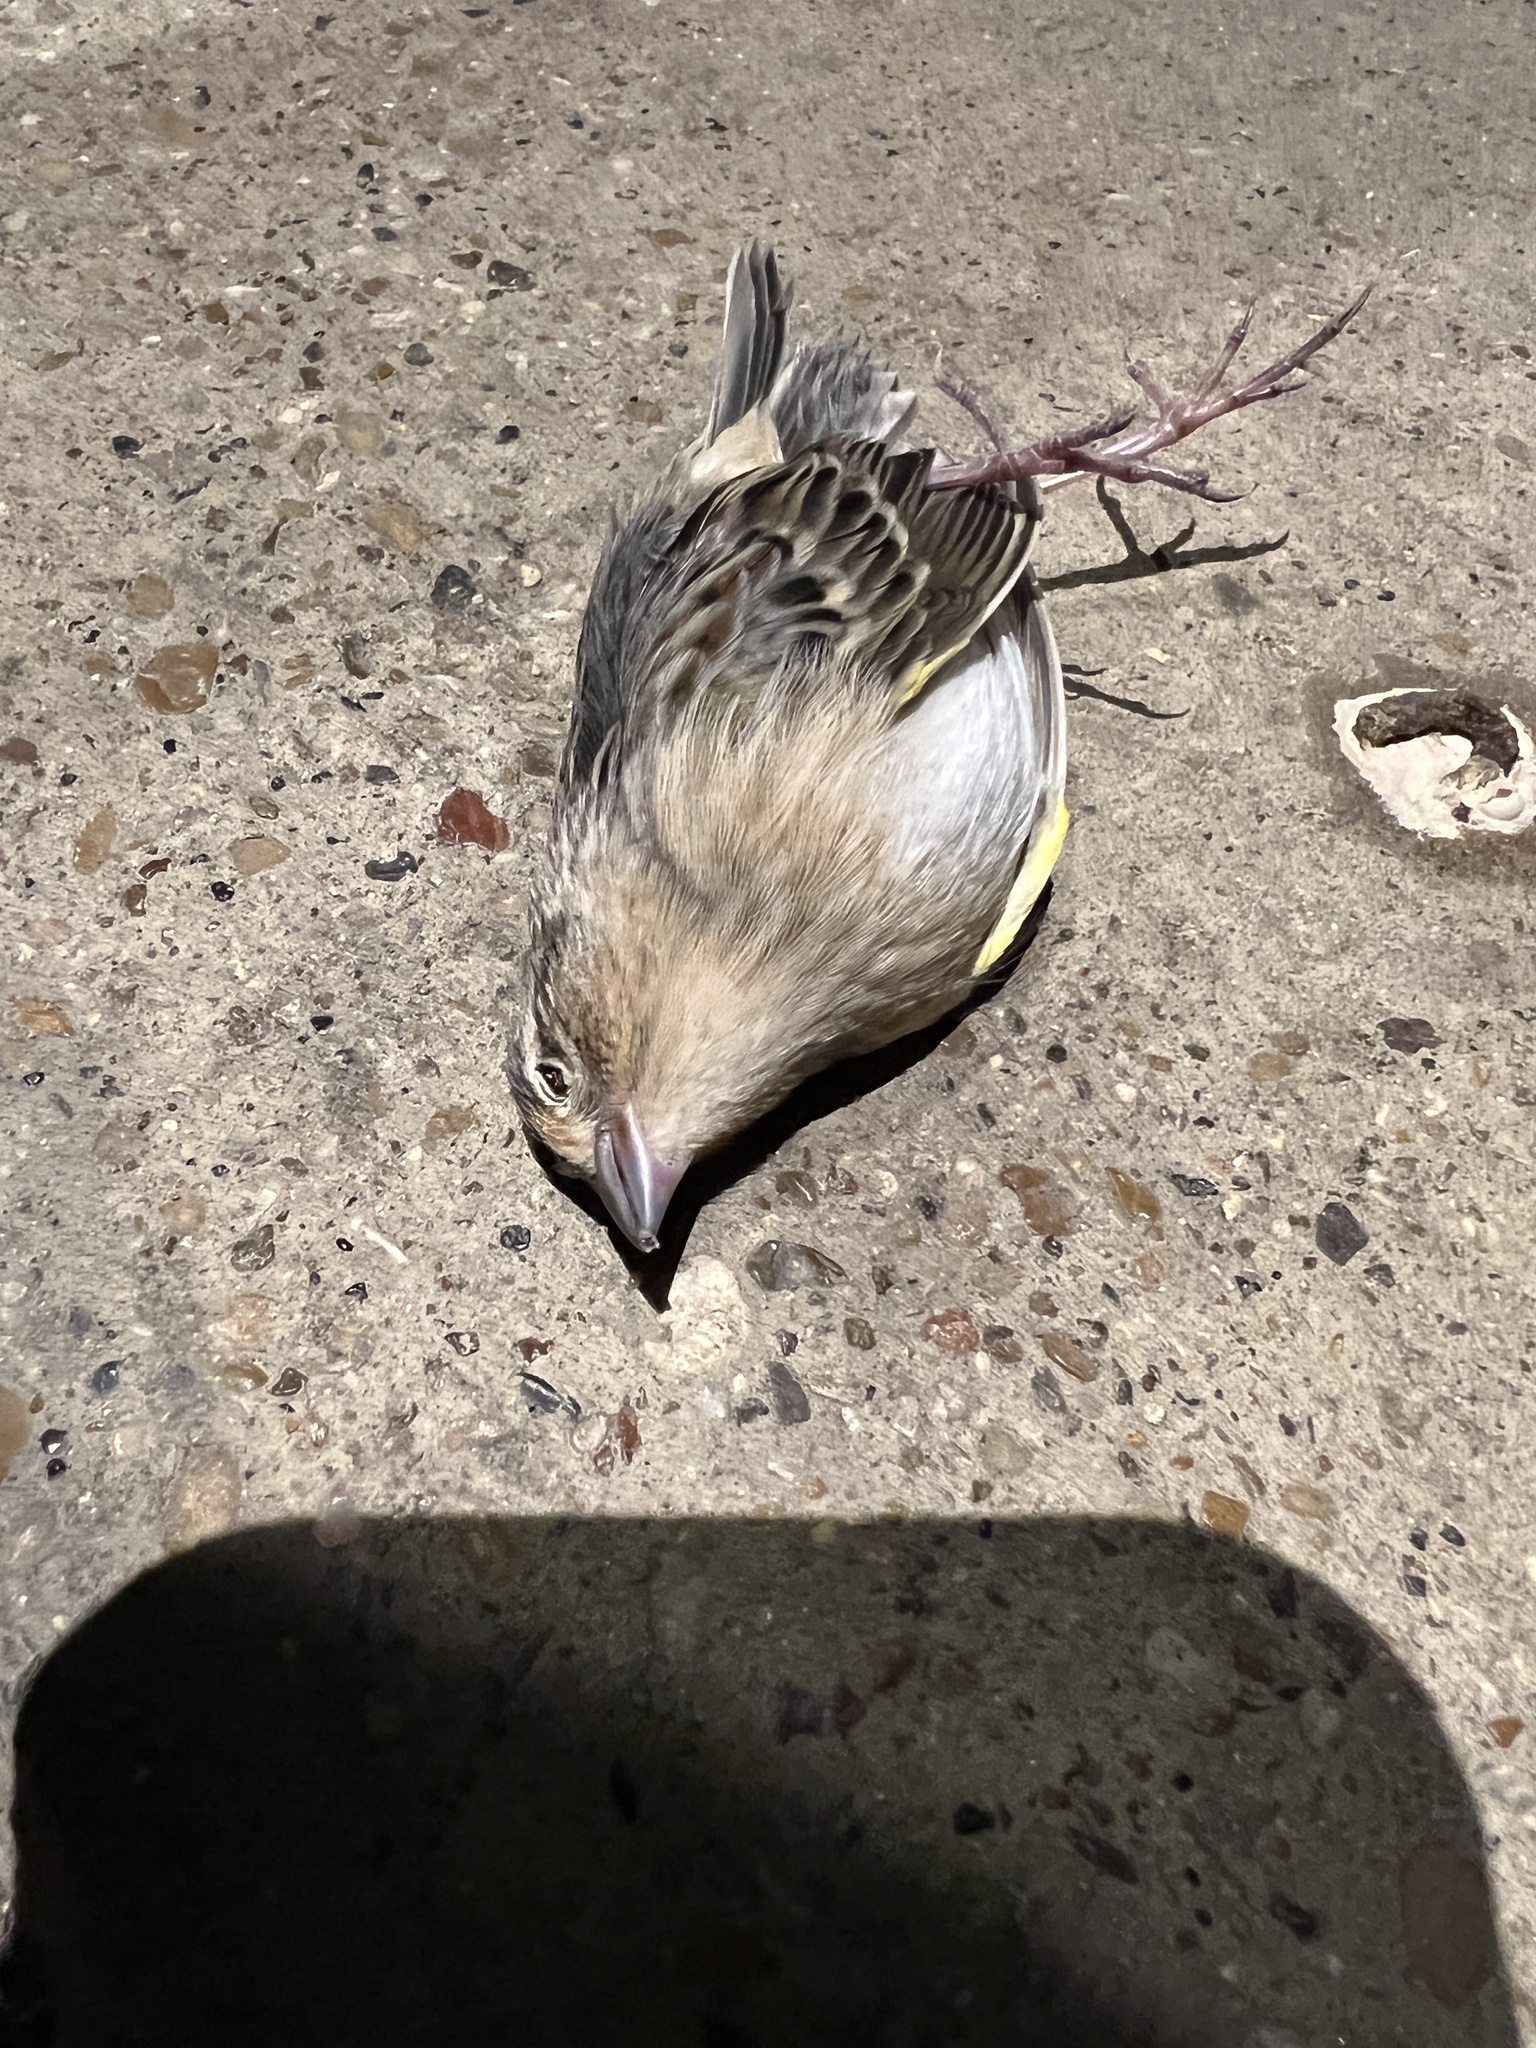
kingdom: Animalia
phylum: Chordata
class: Aves
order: Passeriformes
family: Passerellidae
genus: Ammodramus
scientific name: Ammodramus savannarum
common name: Grasshopper sparrow
